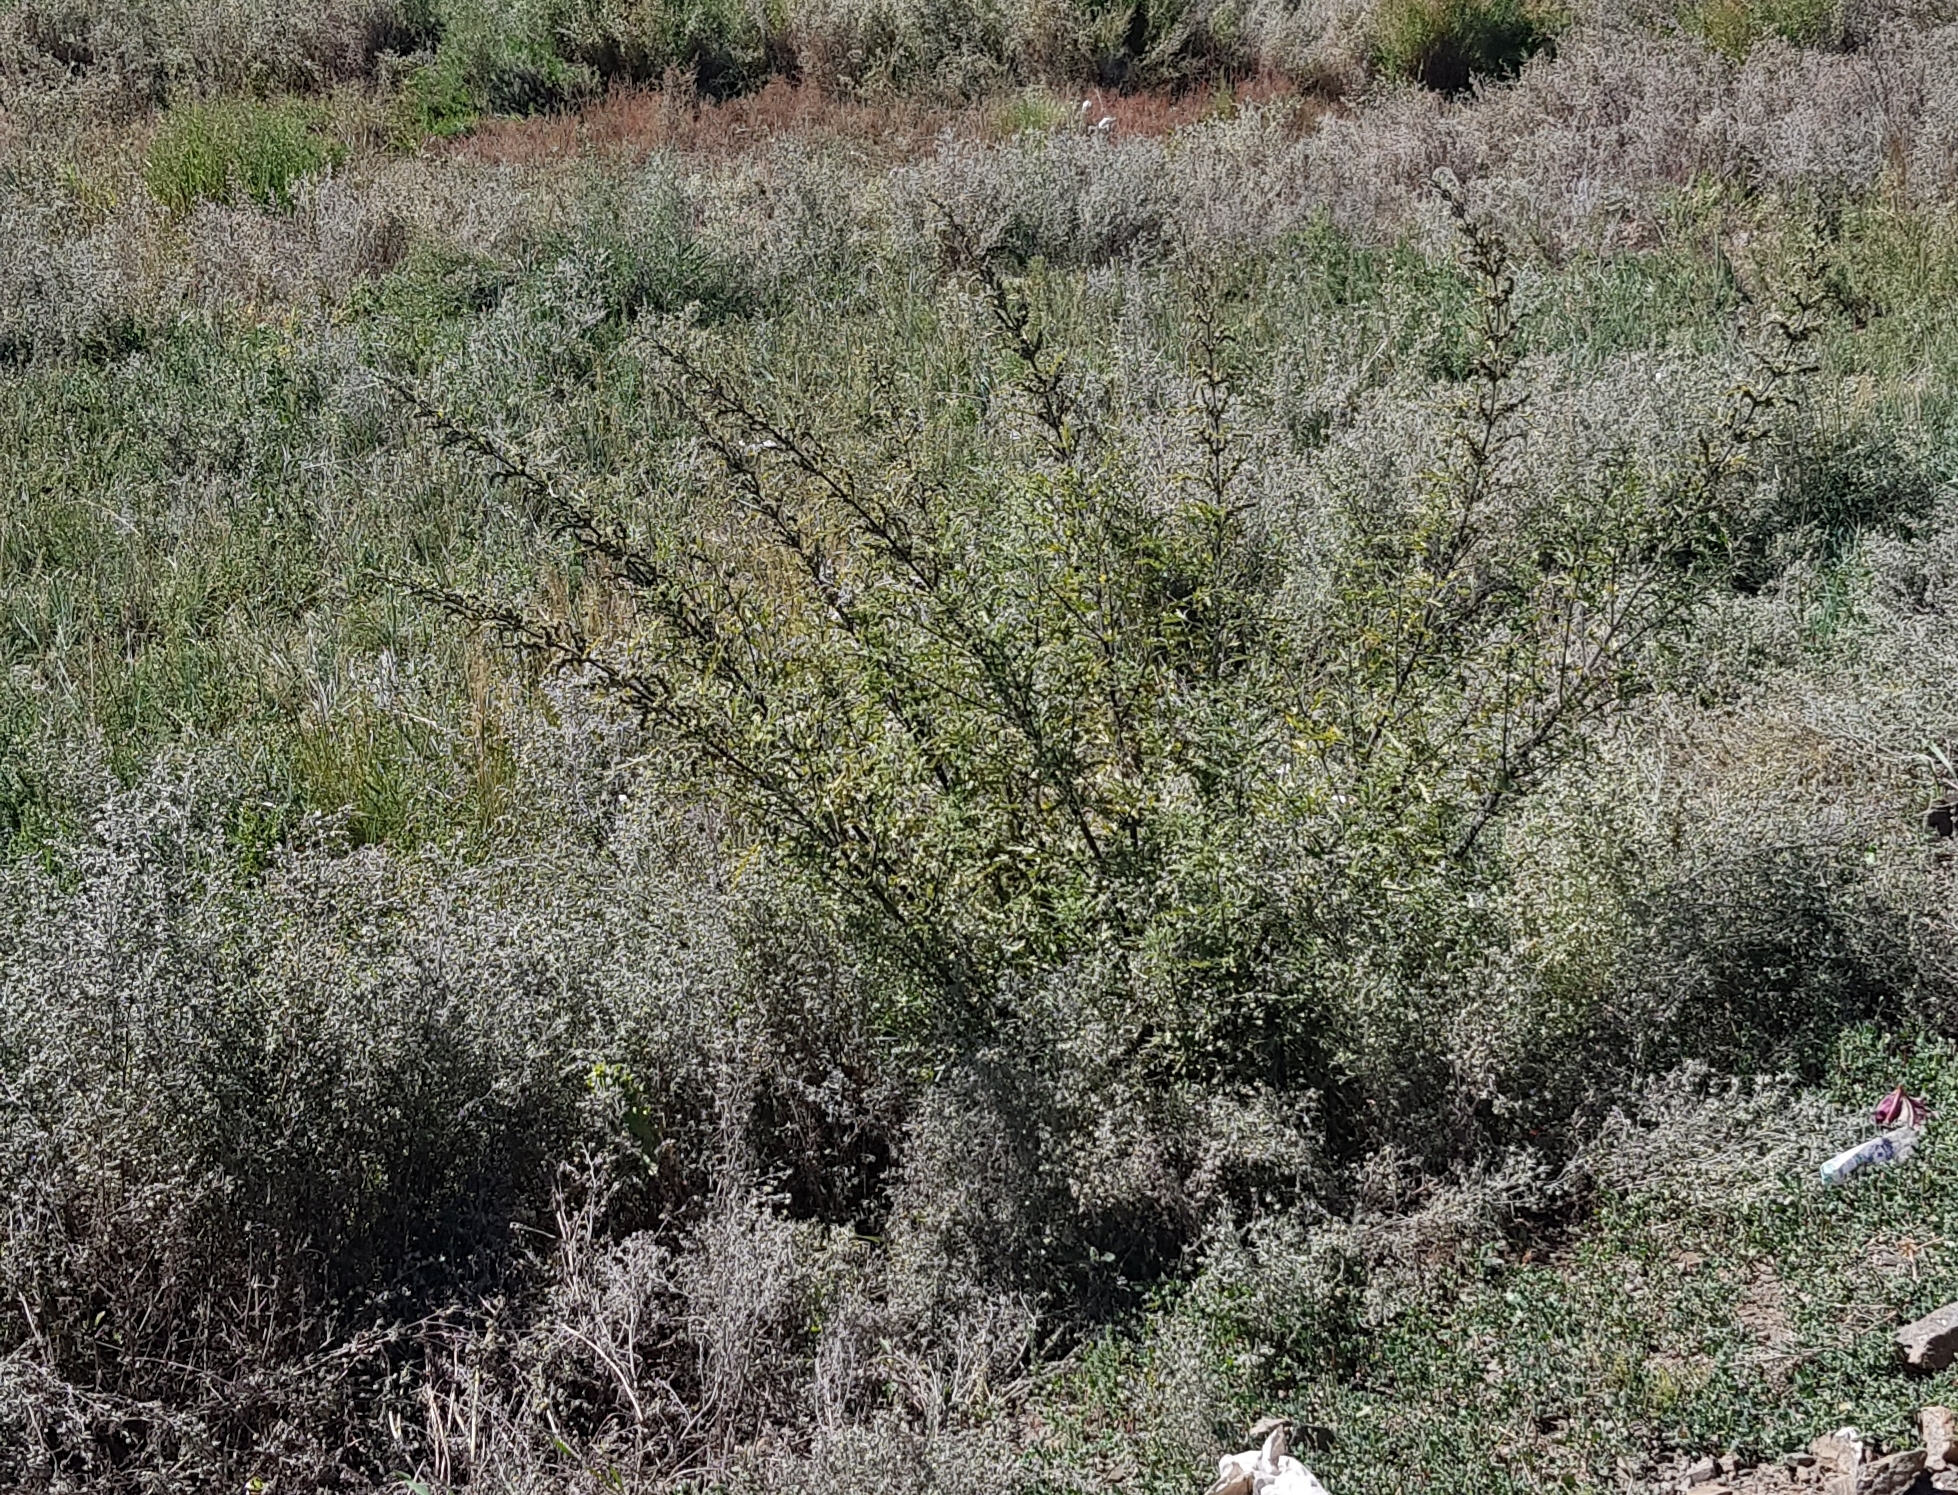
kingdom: Plantae
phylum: Tracheophyta
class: Magnoliopsida
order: Rosales
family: Urticaceae
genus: Urtica
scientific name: Urtica cannabina
